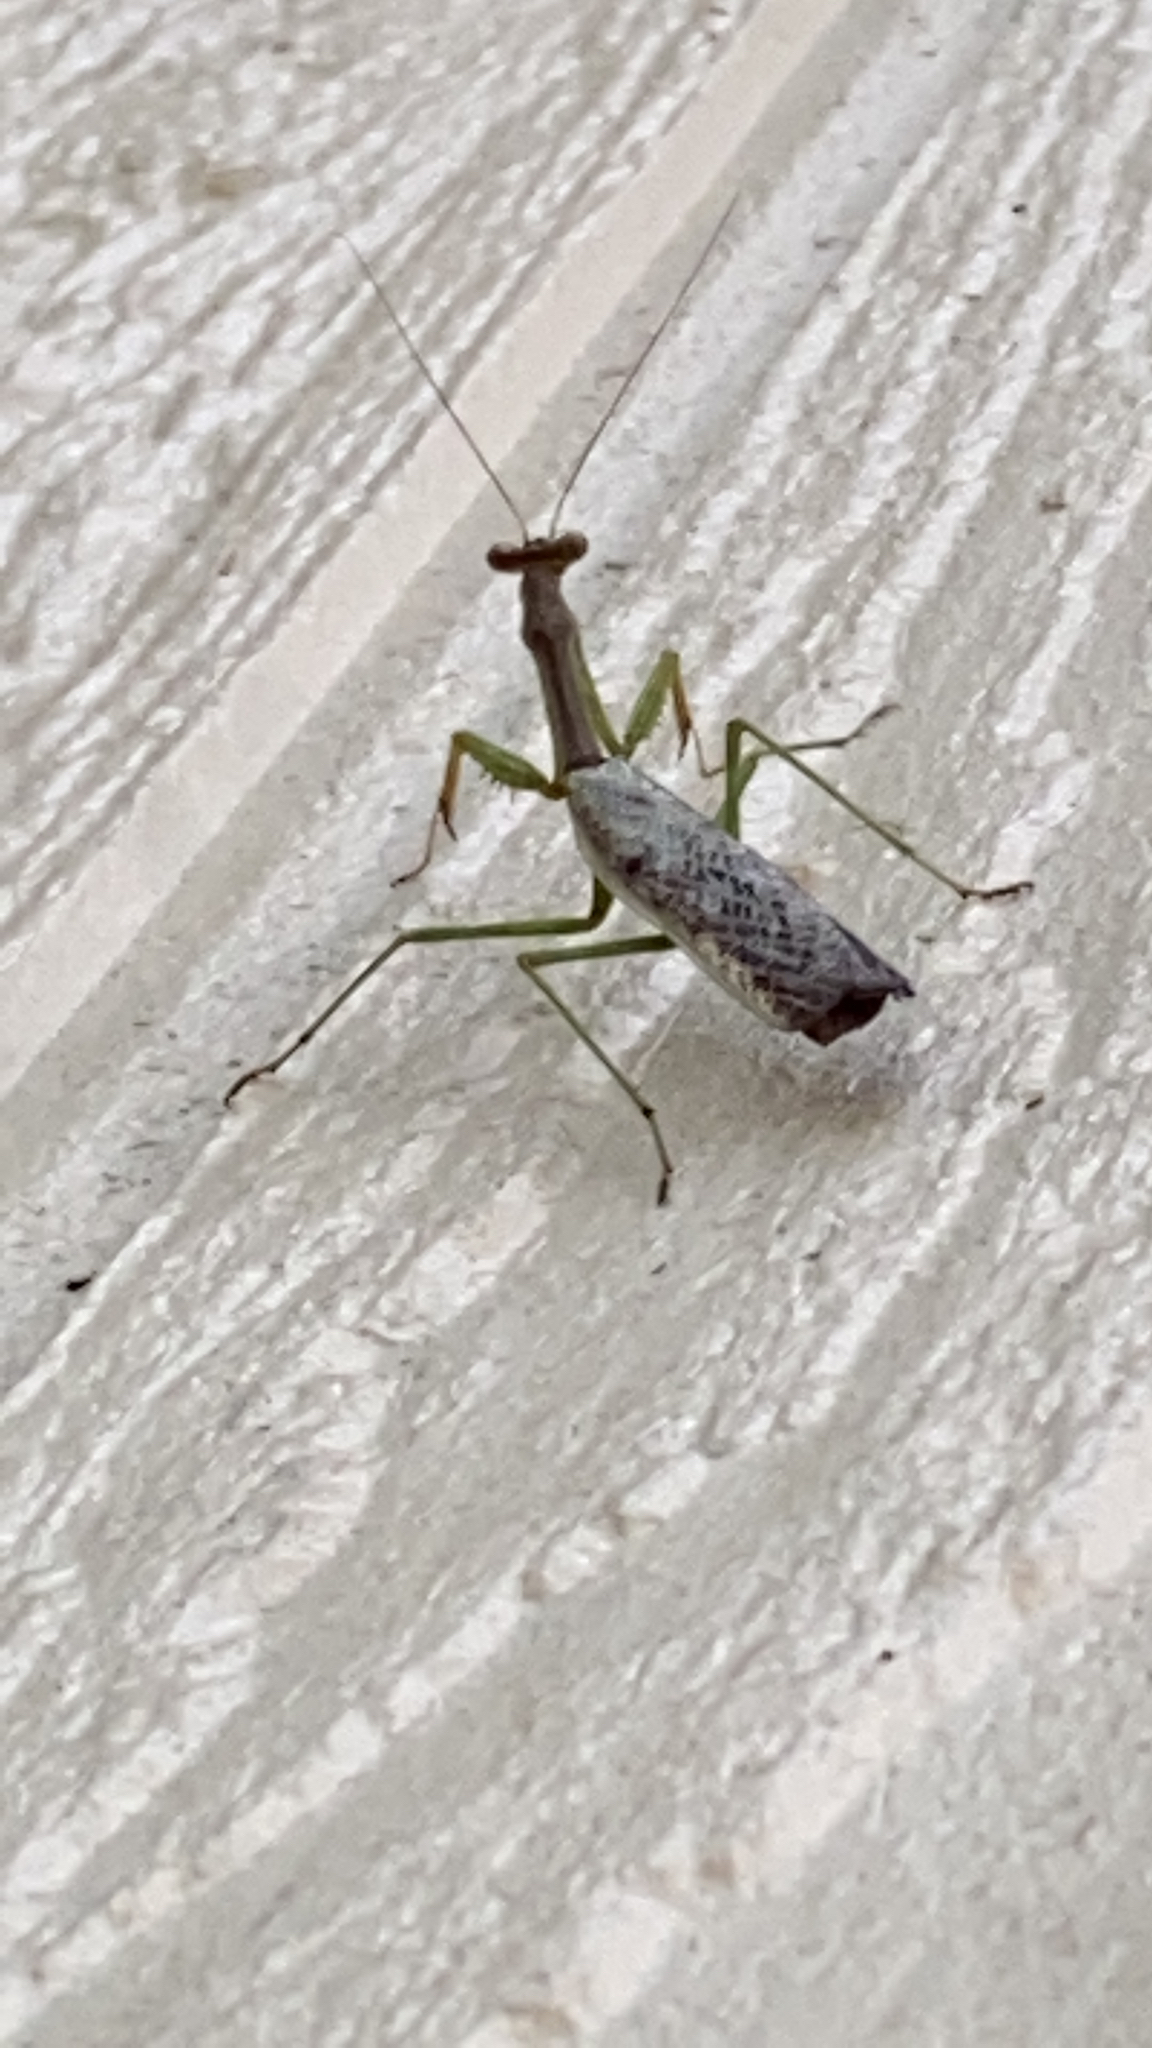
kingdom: Animalia
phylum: Arthropoda
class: Insecta
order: Mantodea
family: Mantidae
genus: Stagmomantis
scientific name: Stagmomantis carolina
